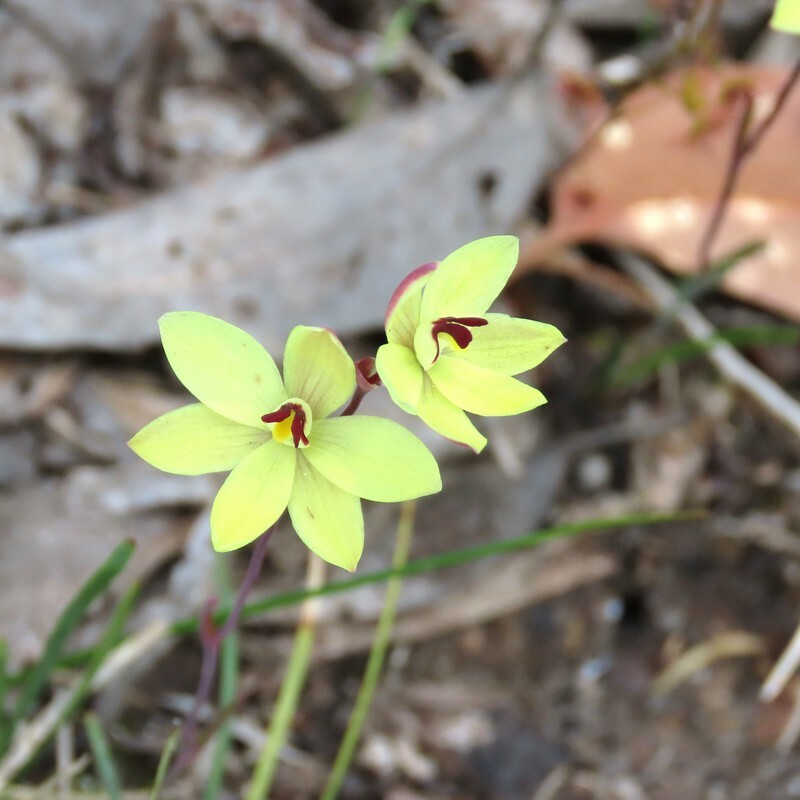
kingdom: Plantae
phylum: Tracheophyta
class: Liliopsida
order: Asparagales
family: Orchidaceae
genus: Thelymitra
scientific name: Thelymitra antennifera
